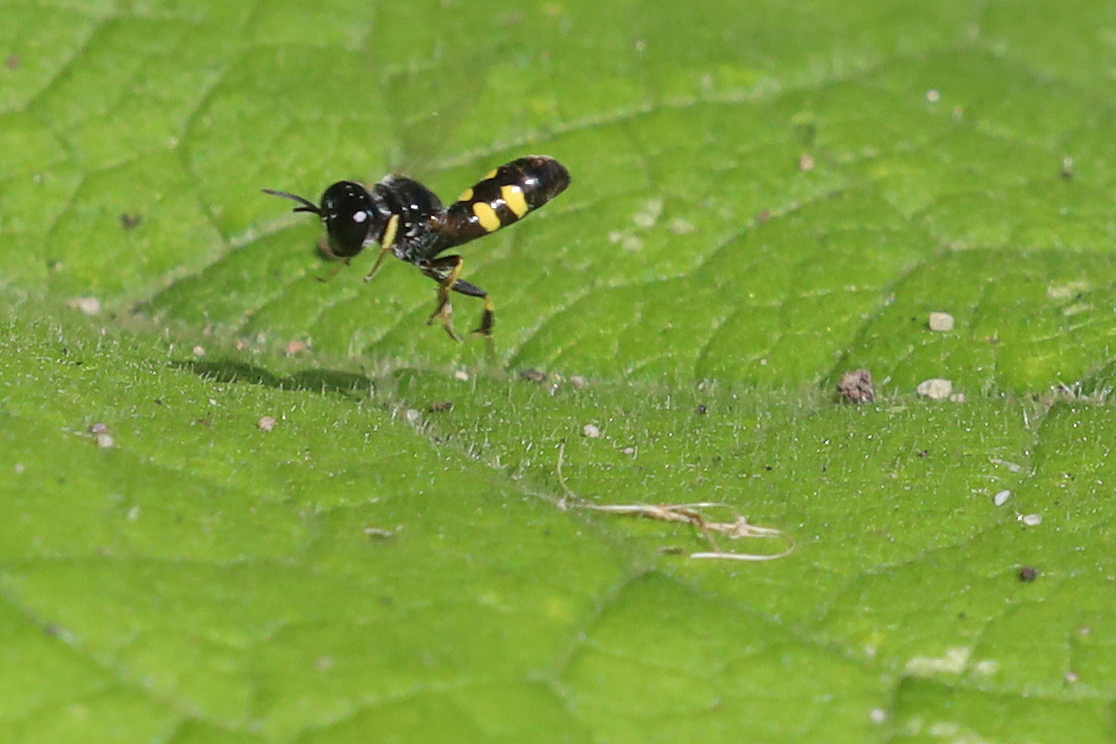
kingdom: Animalia
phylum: Arthropoda
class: Insecta
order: Hymenoptera
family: Crabronidae
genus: Crossocerus
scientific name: Crossocerus quadrimaculatus
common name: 4-spotted digger wasp
